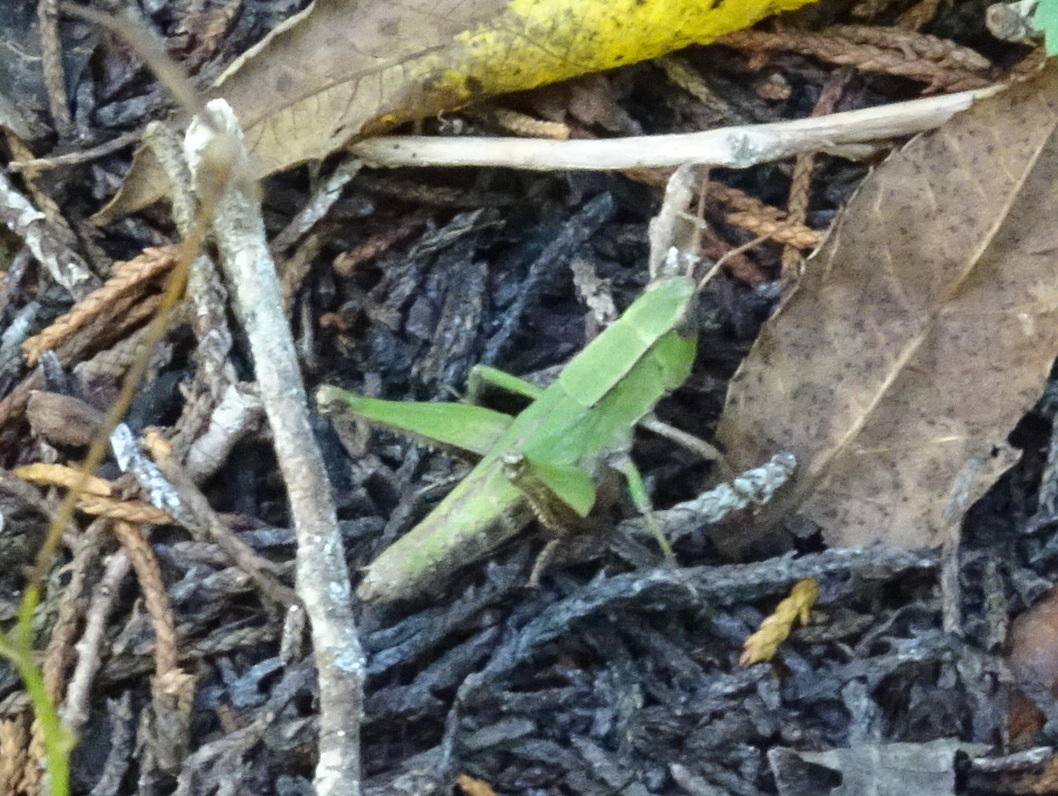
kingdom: Animalia
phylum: Arthropoda
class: Insecta
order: Orthoptera
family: Acrididae
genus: Dichromorpha
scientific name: Dichromorpha viridis
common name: Short-winged green grasshopper
